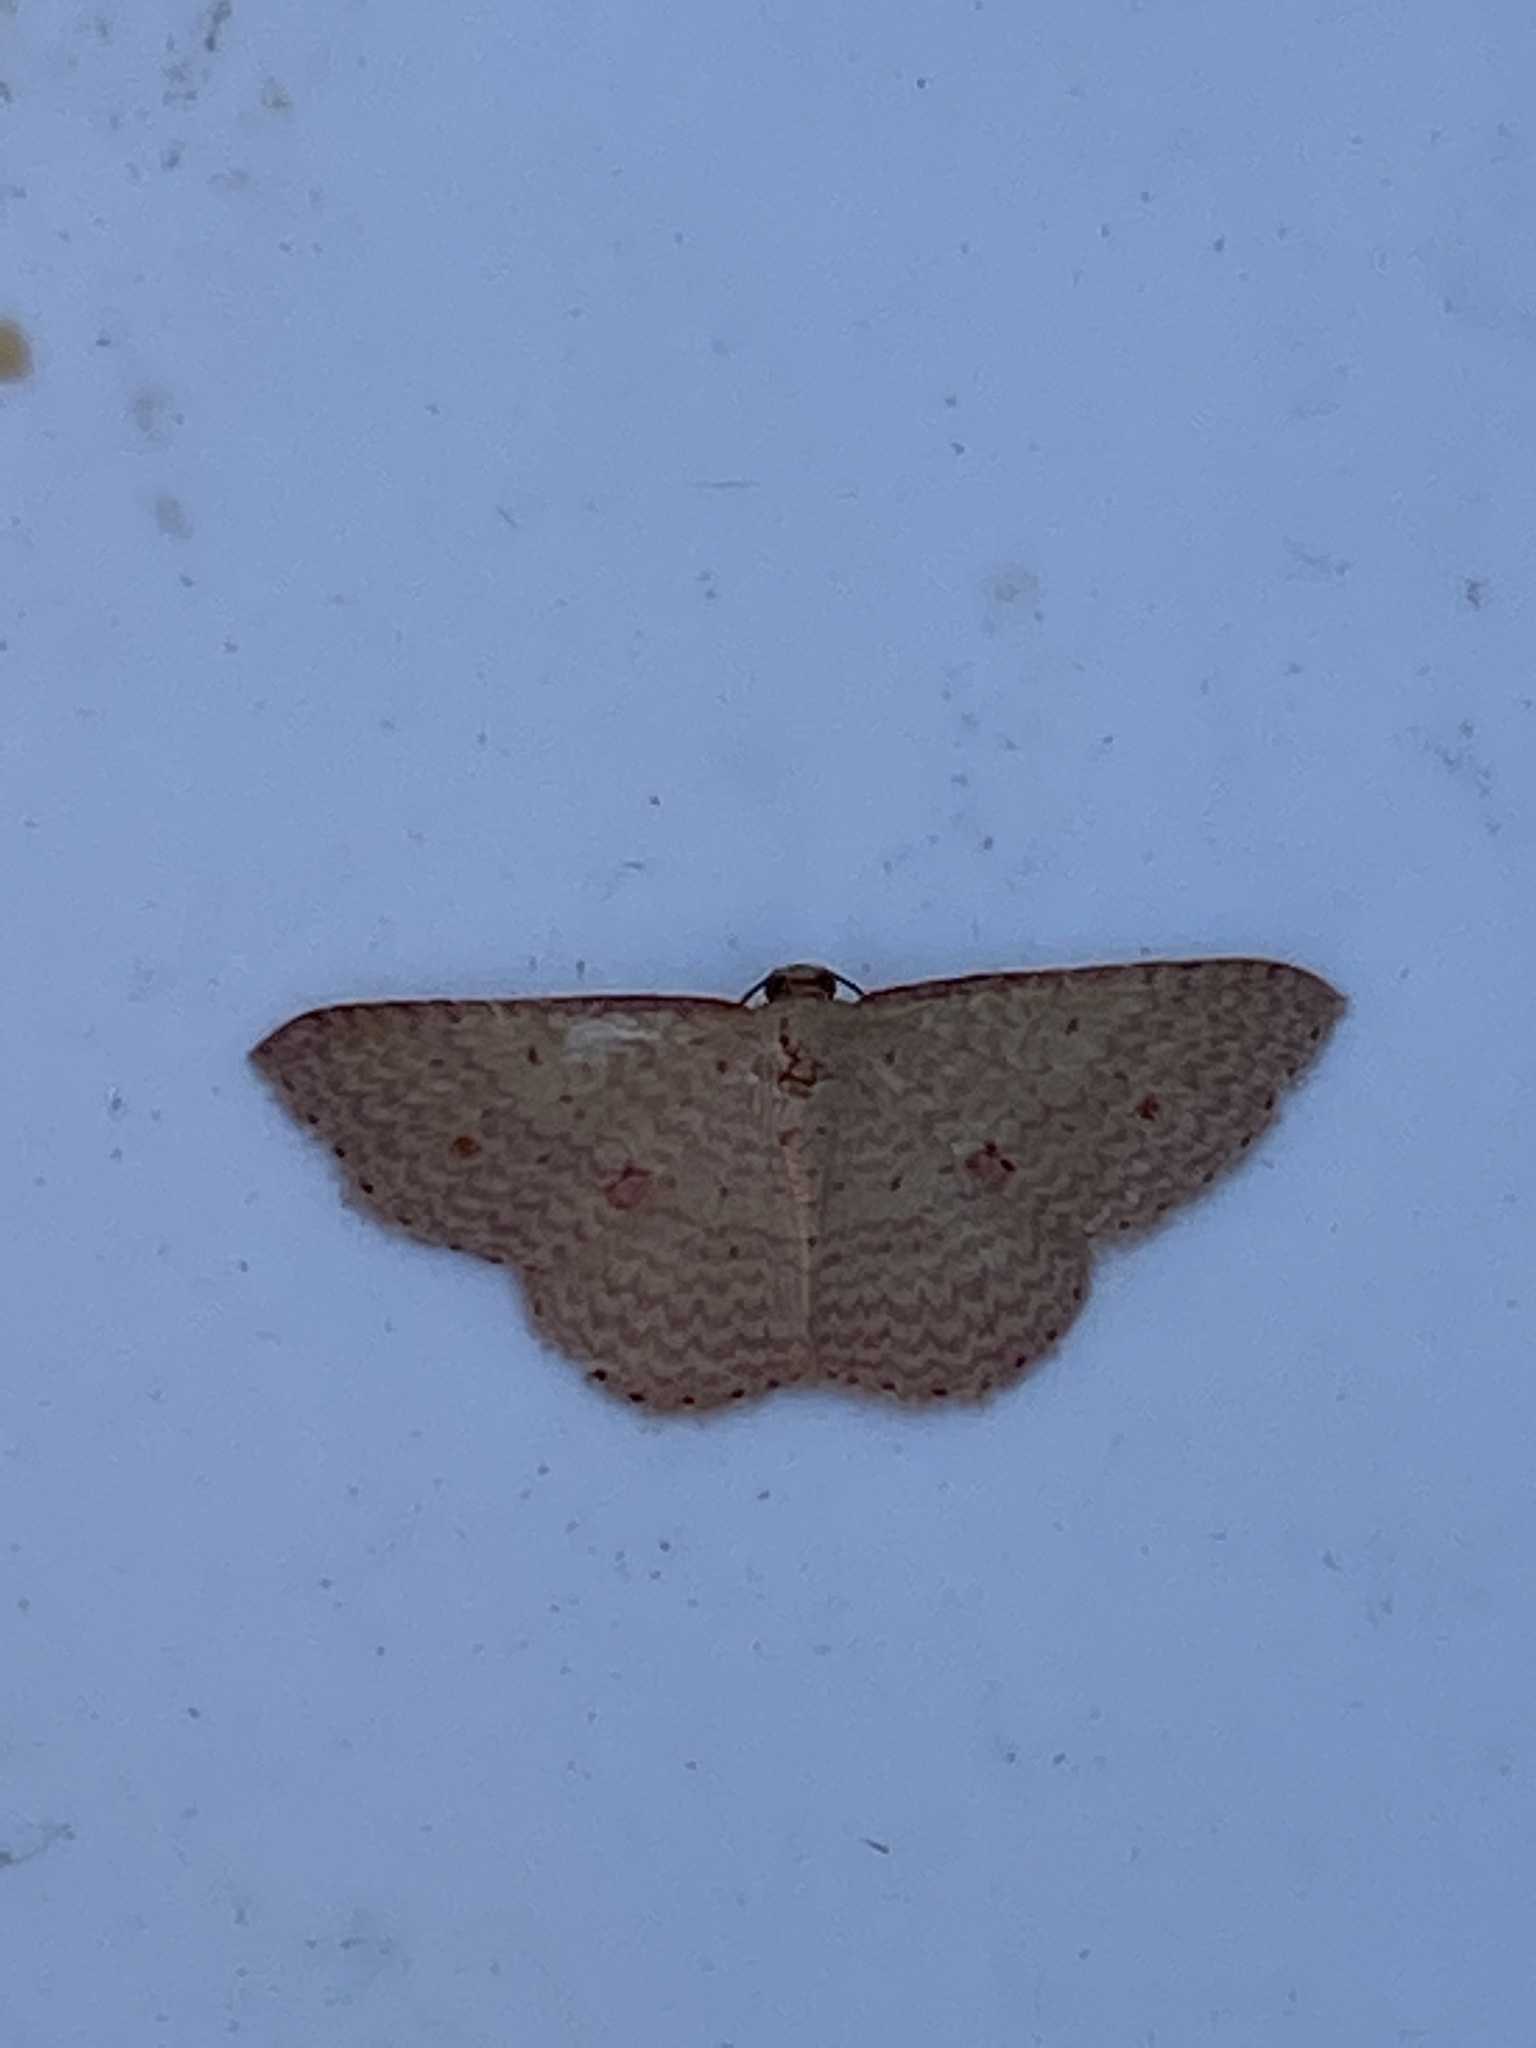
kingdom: Animalia
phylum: Arthropoda
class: Insecta
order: Lepidoptera
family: Geometridae
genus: Epicyme
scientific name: Epicyme rubropunctaria
